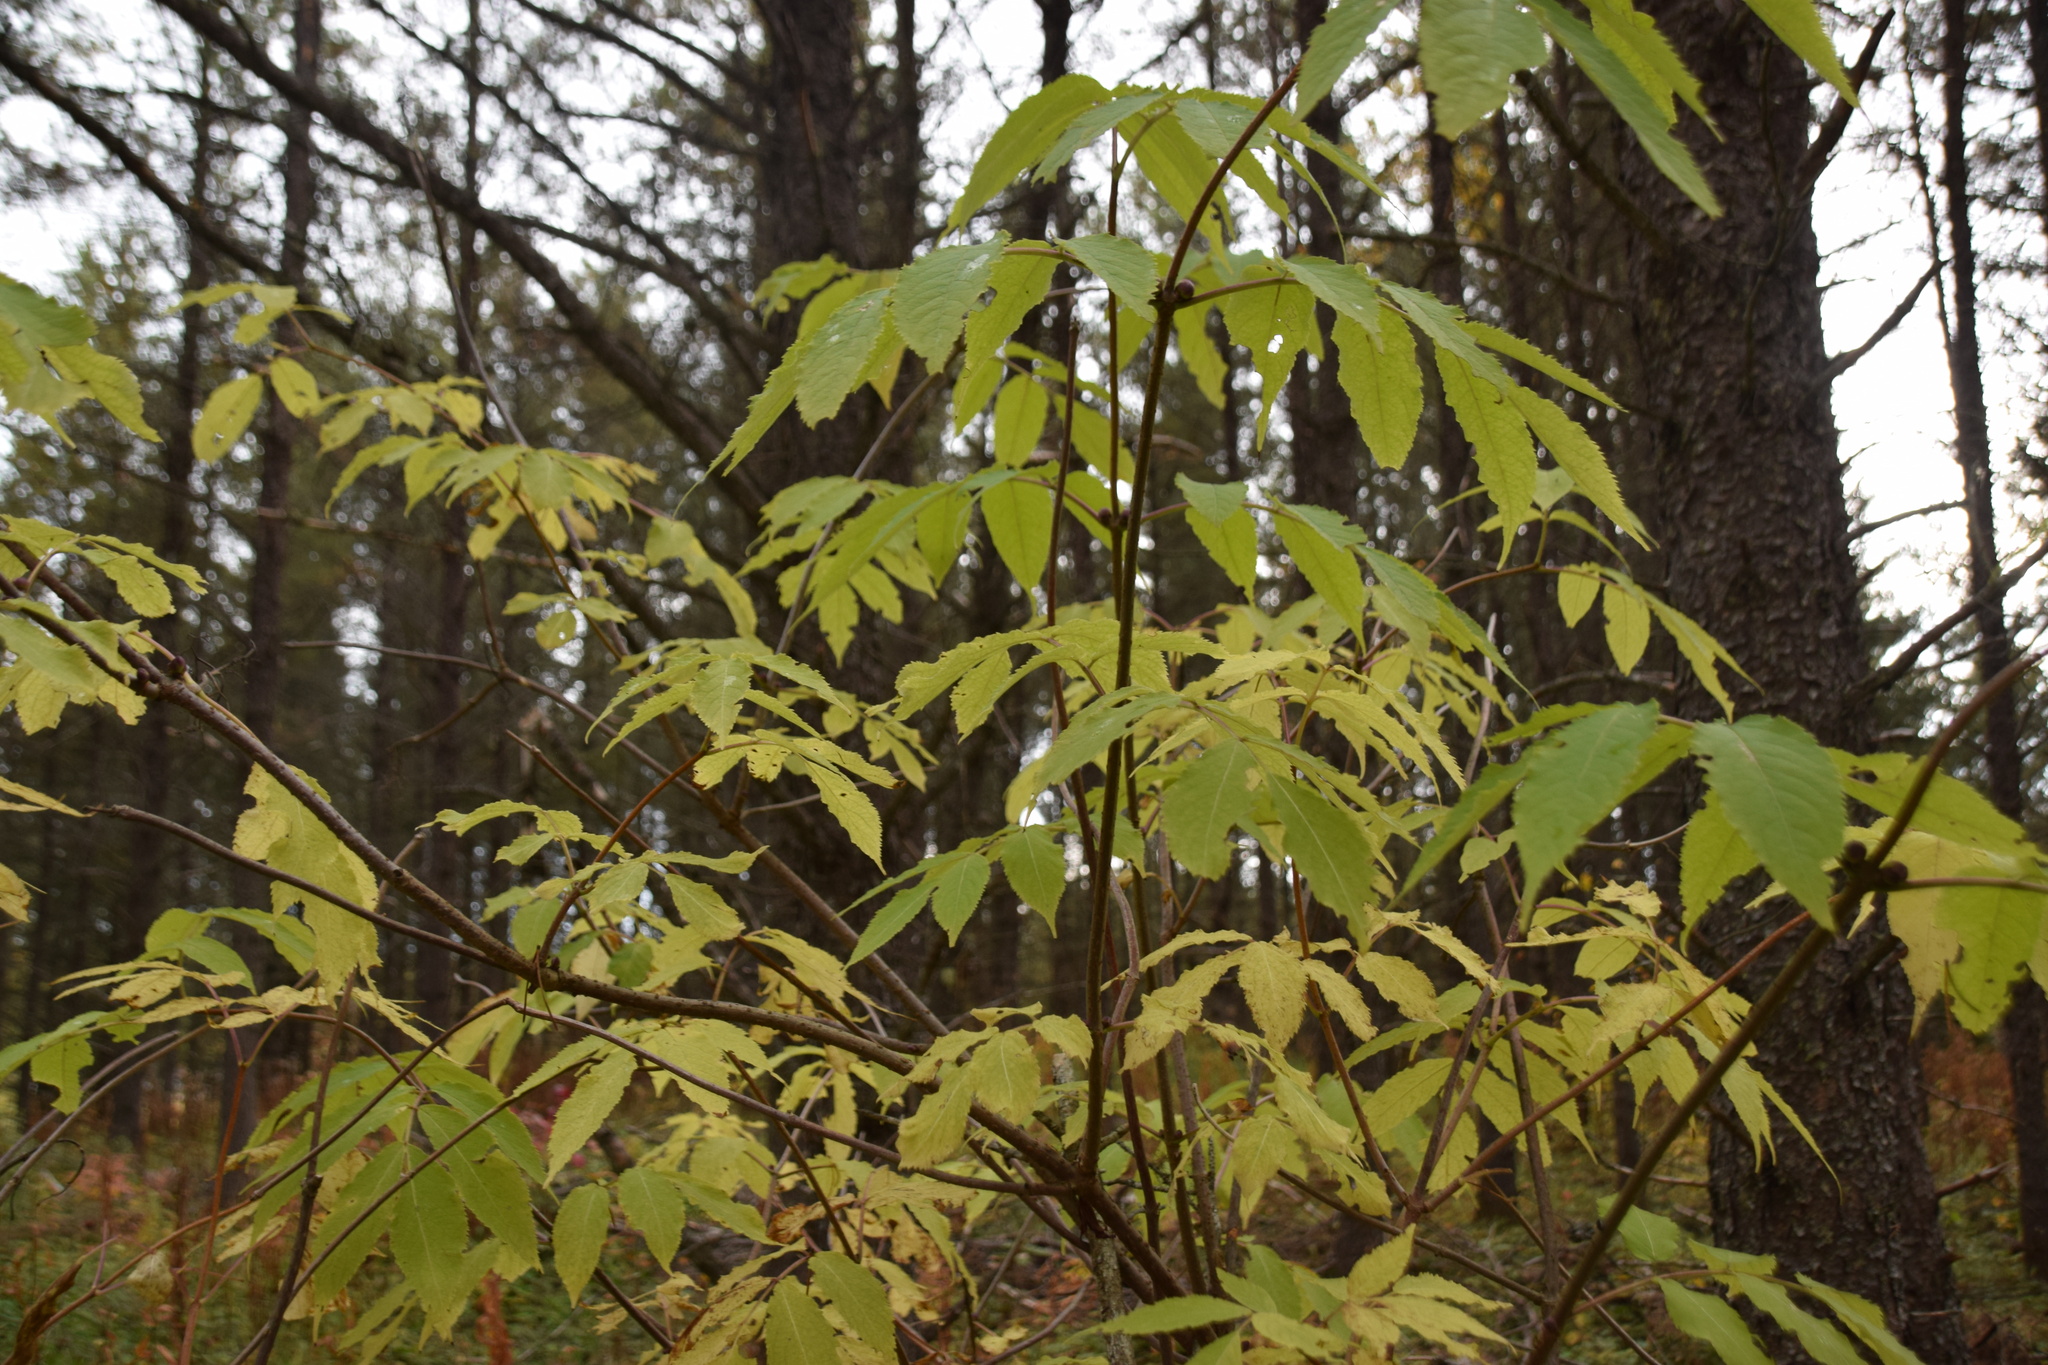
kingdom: Plantae
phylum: Tracheophyta
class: Magnoliopsida
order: Dipsacales
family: Viburnaceae
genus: Sambucus
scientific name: Sambucus racemosa
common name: Red-berried elder
